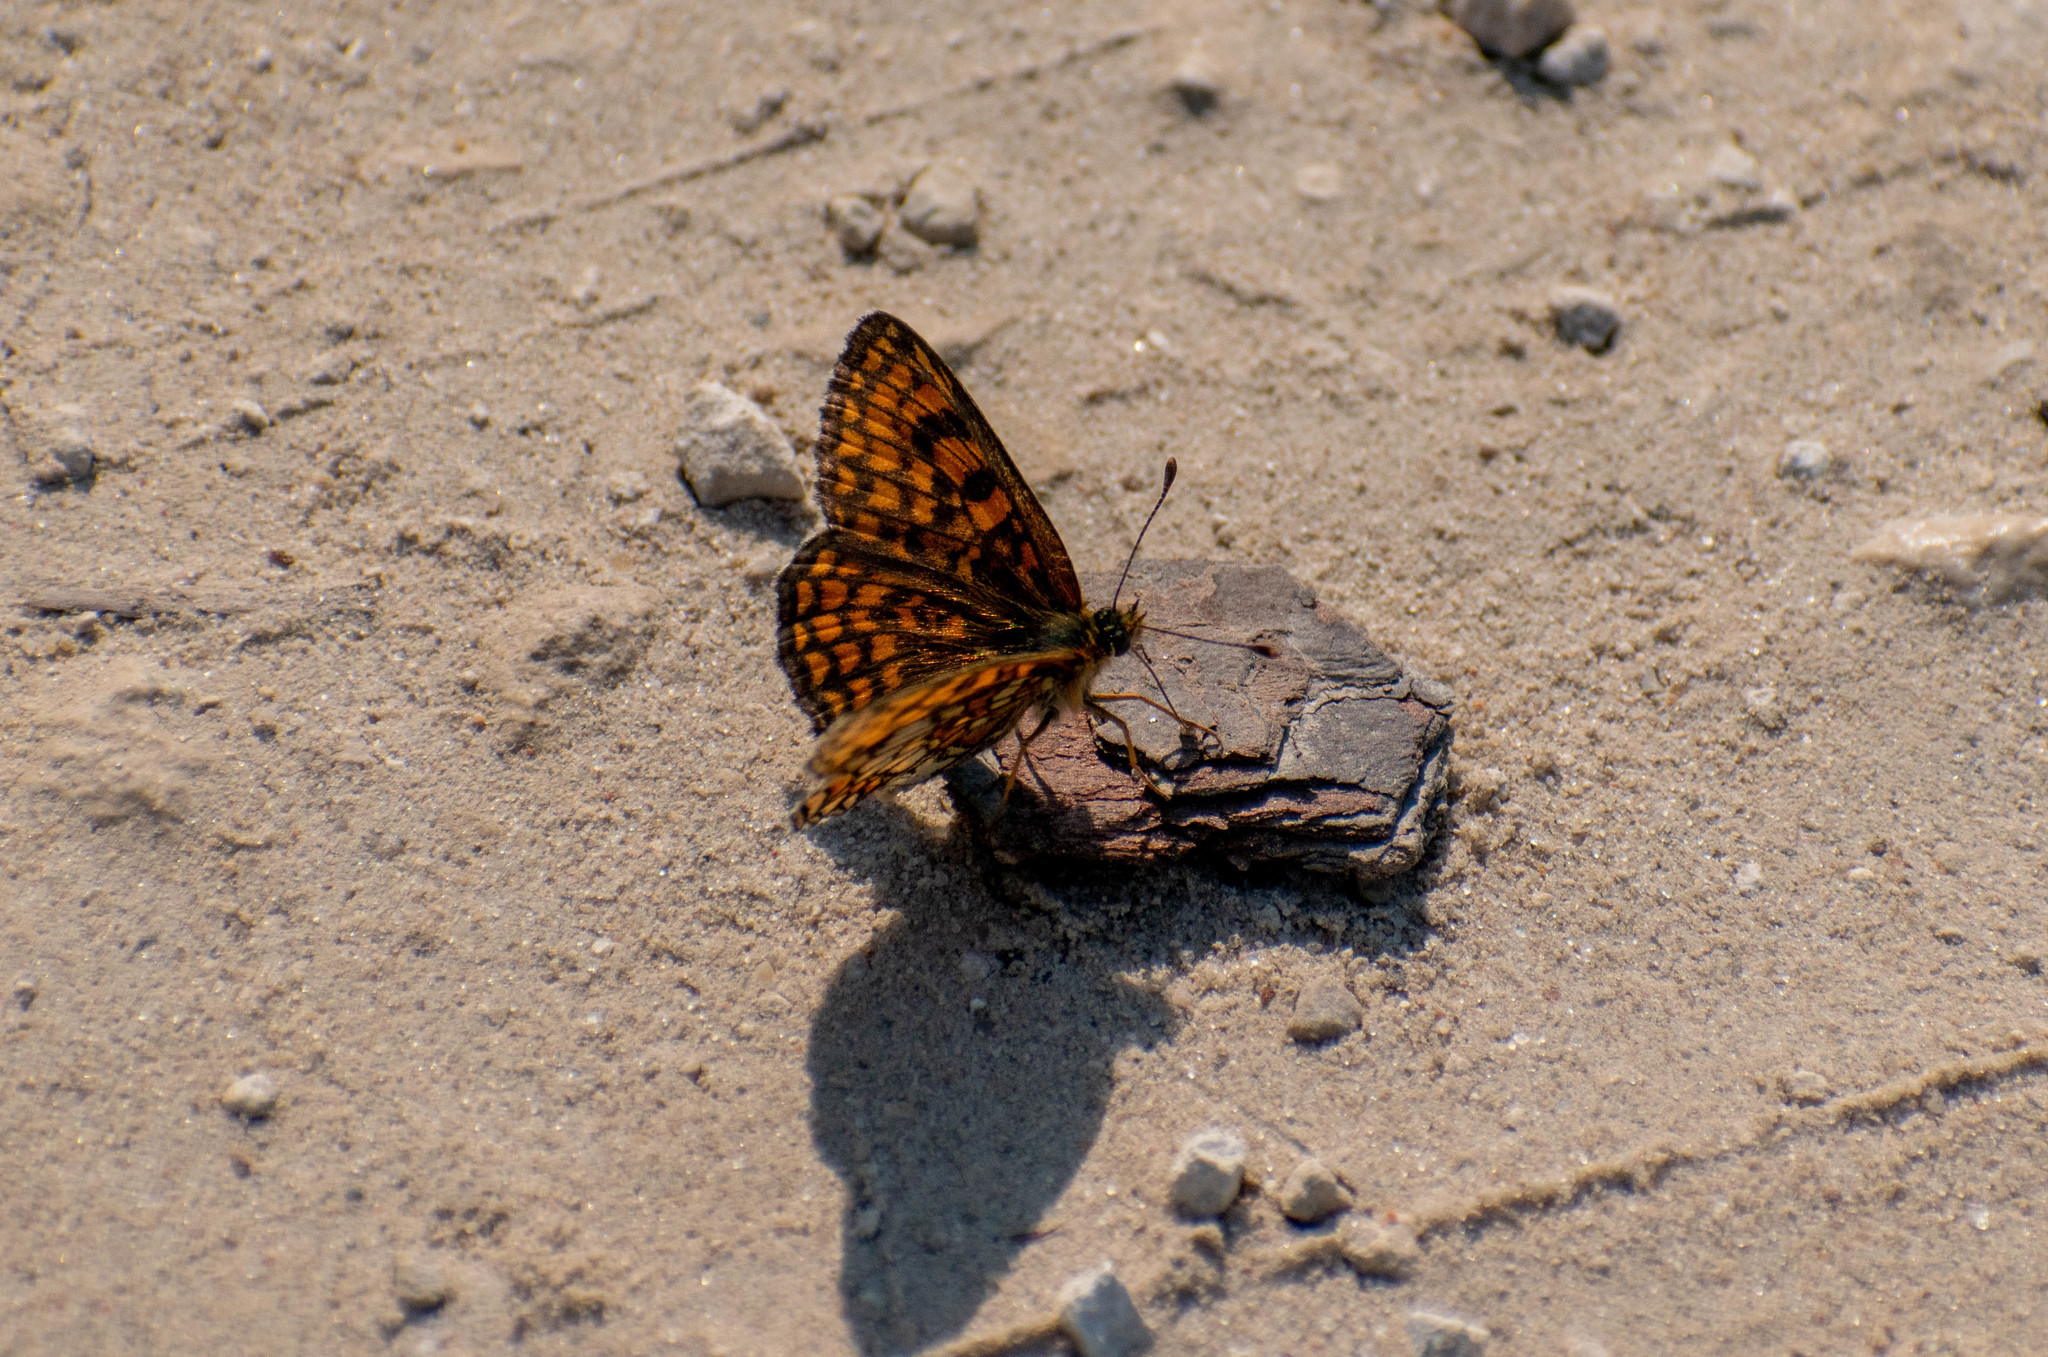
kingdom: Animalia
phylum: Arthropoda
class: Insecta
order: Lepidoptera
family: Nymphalidae
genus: Melitaea
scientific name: Melitaea athalia
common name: Heath fritillary
